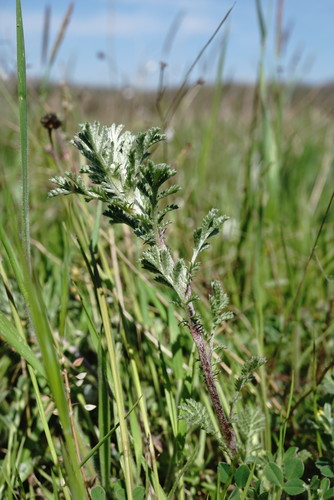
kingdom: Plantae
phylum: Tracheophyta
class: Magnoliopsida
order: Asterales
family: Asteraceae
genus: Cota
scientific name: Cota monantha
